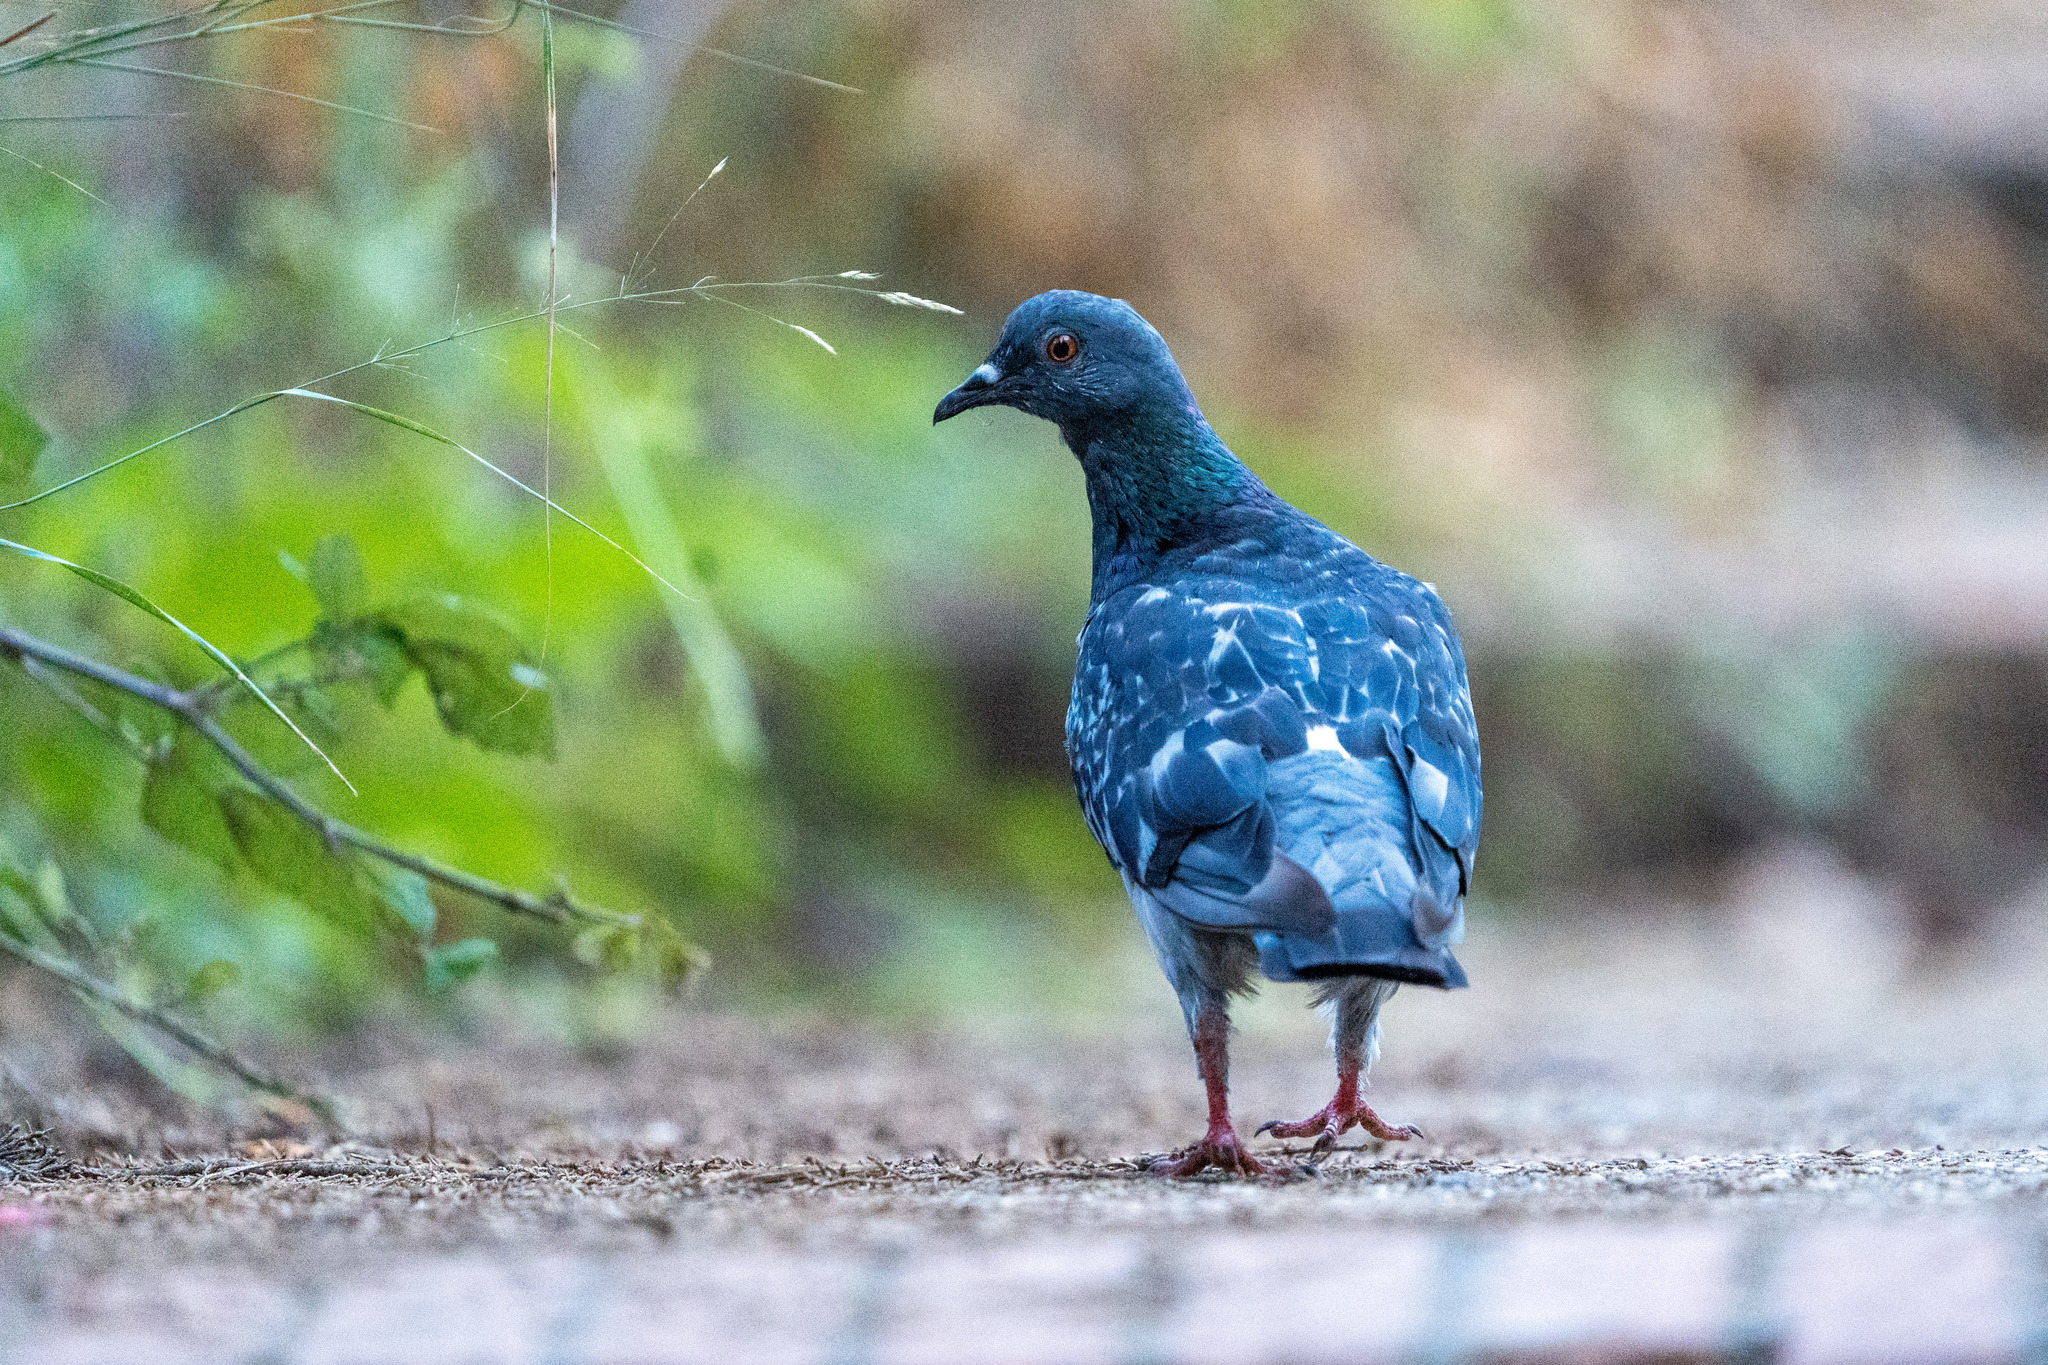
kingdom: Animalia
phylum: Chordata
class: Aves
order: Columbiformes
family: Columbidae
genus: Columba
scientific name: Columba livia
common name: Rock pigeon
